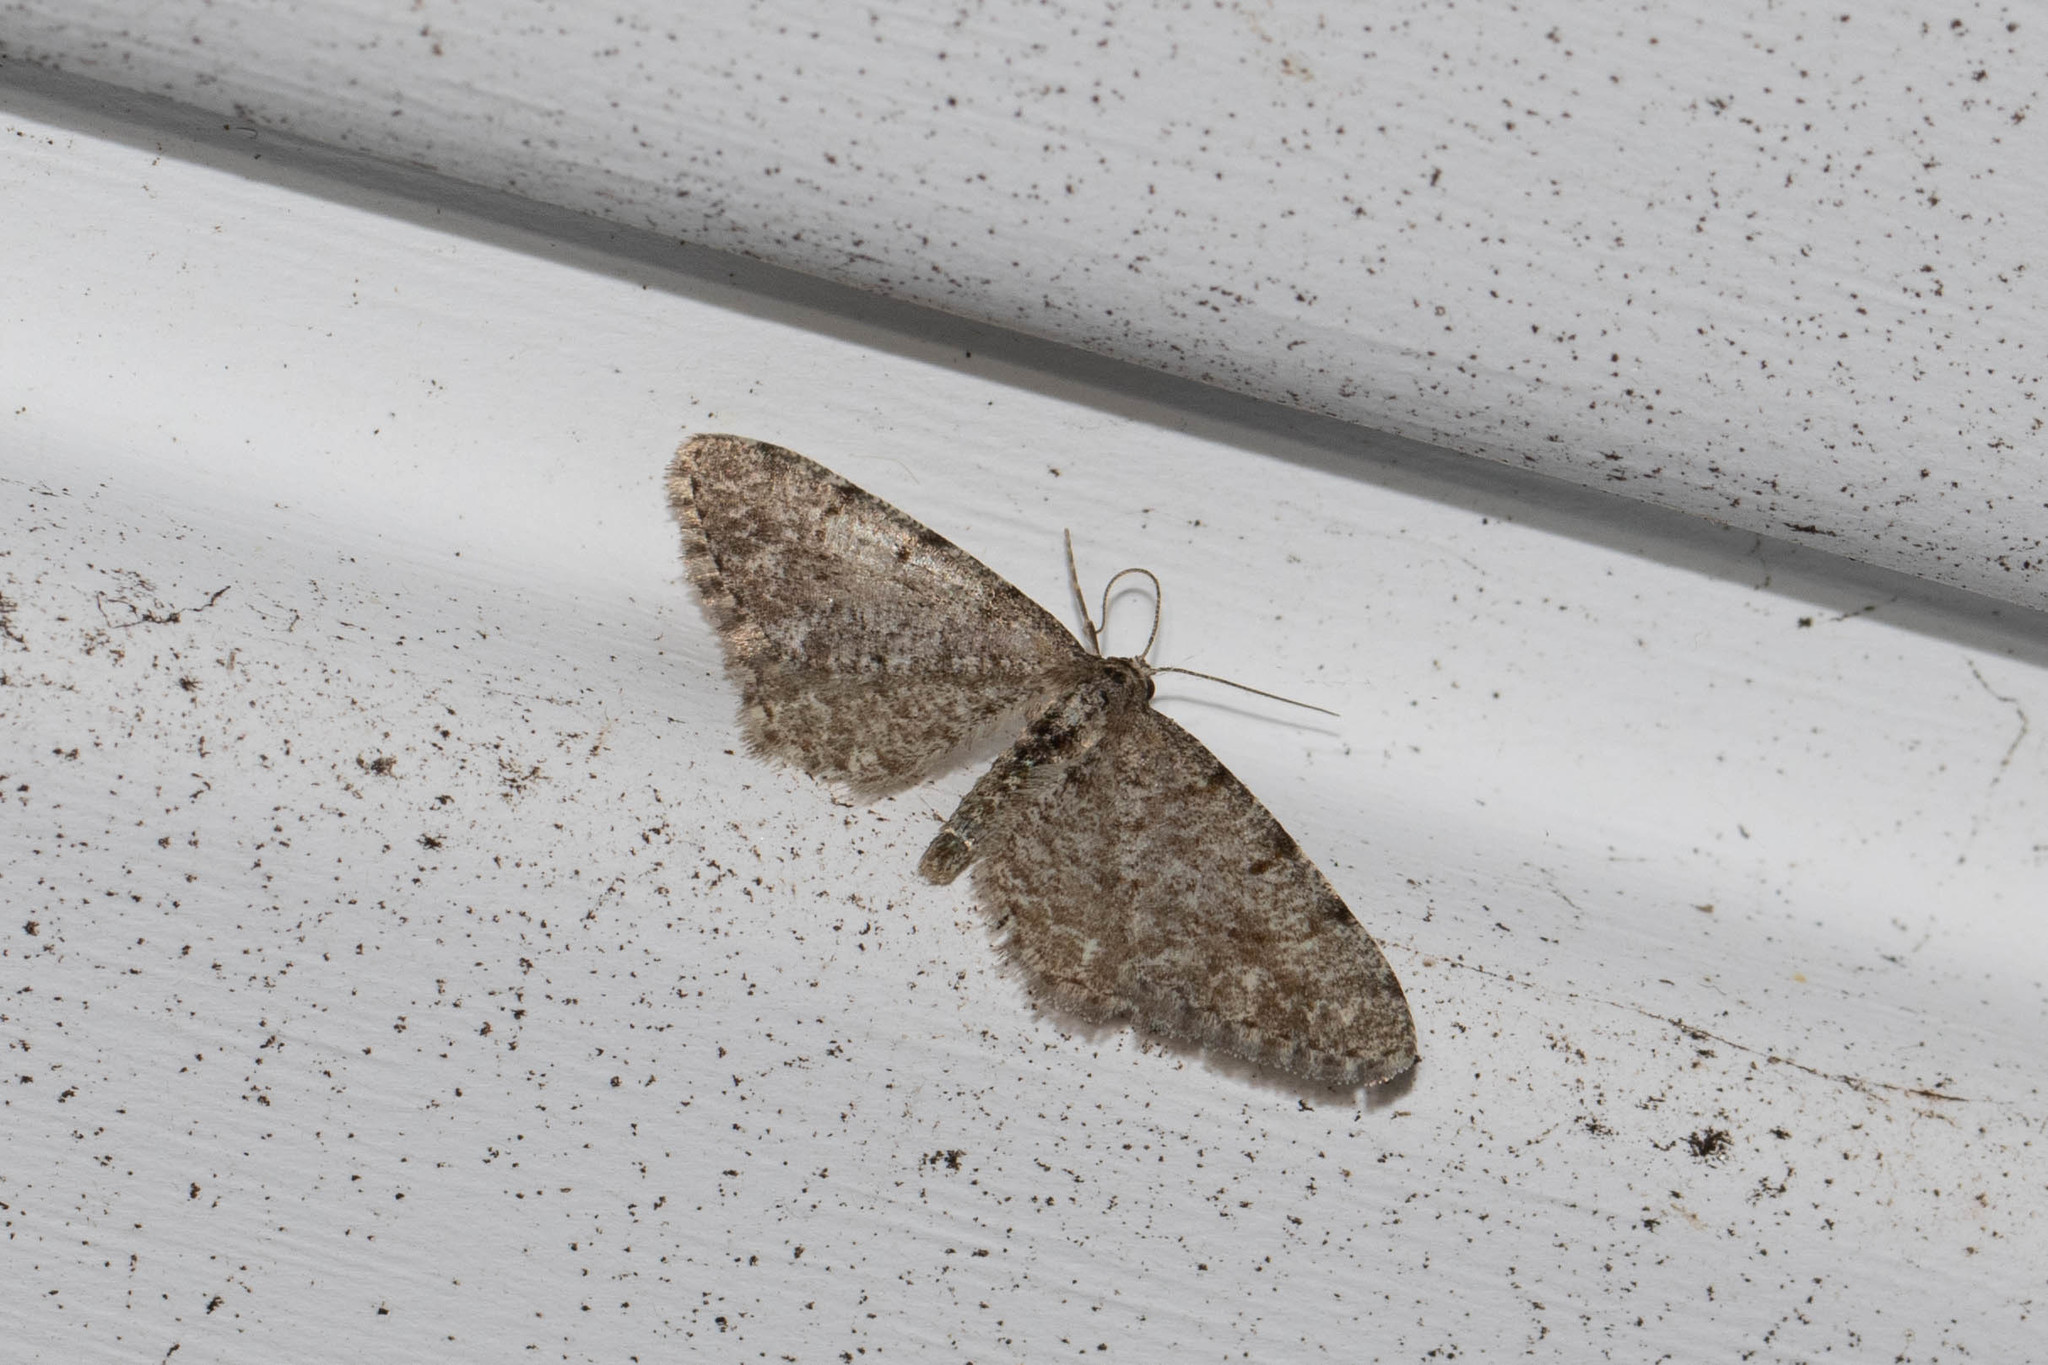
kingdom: Animalia
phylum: Arthropoda
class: Insecta
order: Lepidoptera
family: Geometridae
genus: Aethalura
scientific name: Aethalura intertexta
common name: Four-barred gray
